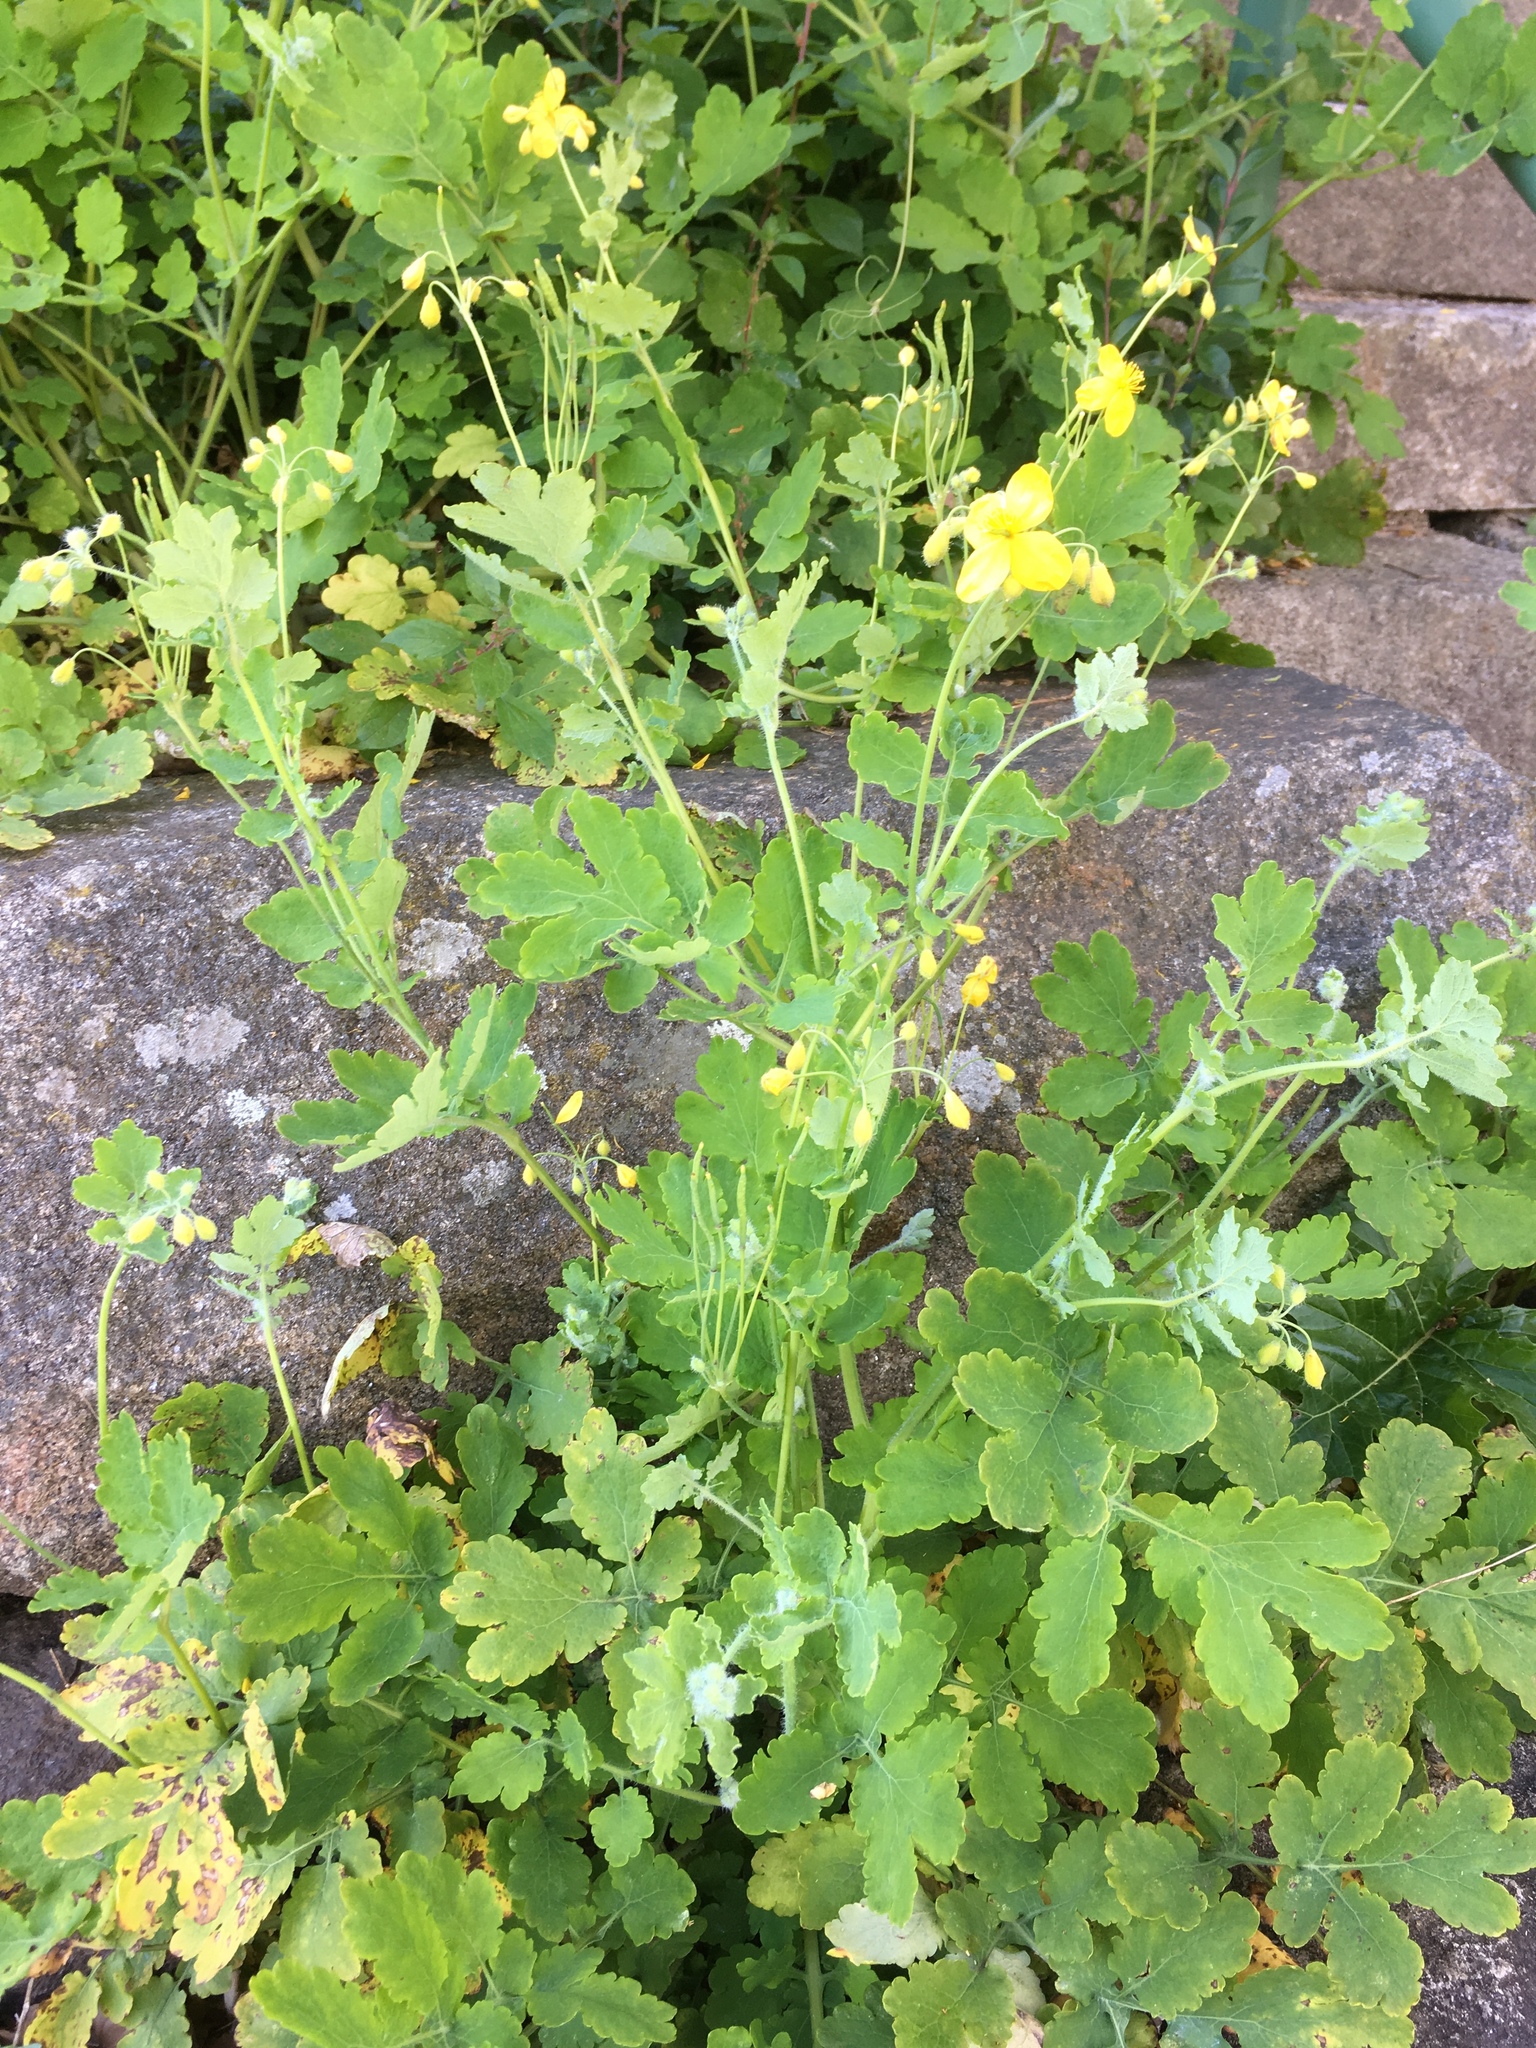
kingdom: Plantae
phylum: Tracheophyta
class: Magnoliopsida
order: Ranunculales
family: Papaveraceae
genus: Chelidonium
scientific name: Chelidonium majus
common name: Greater celandine
